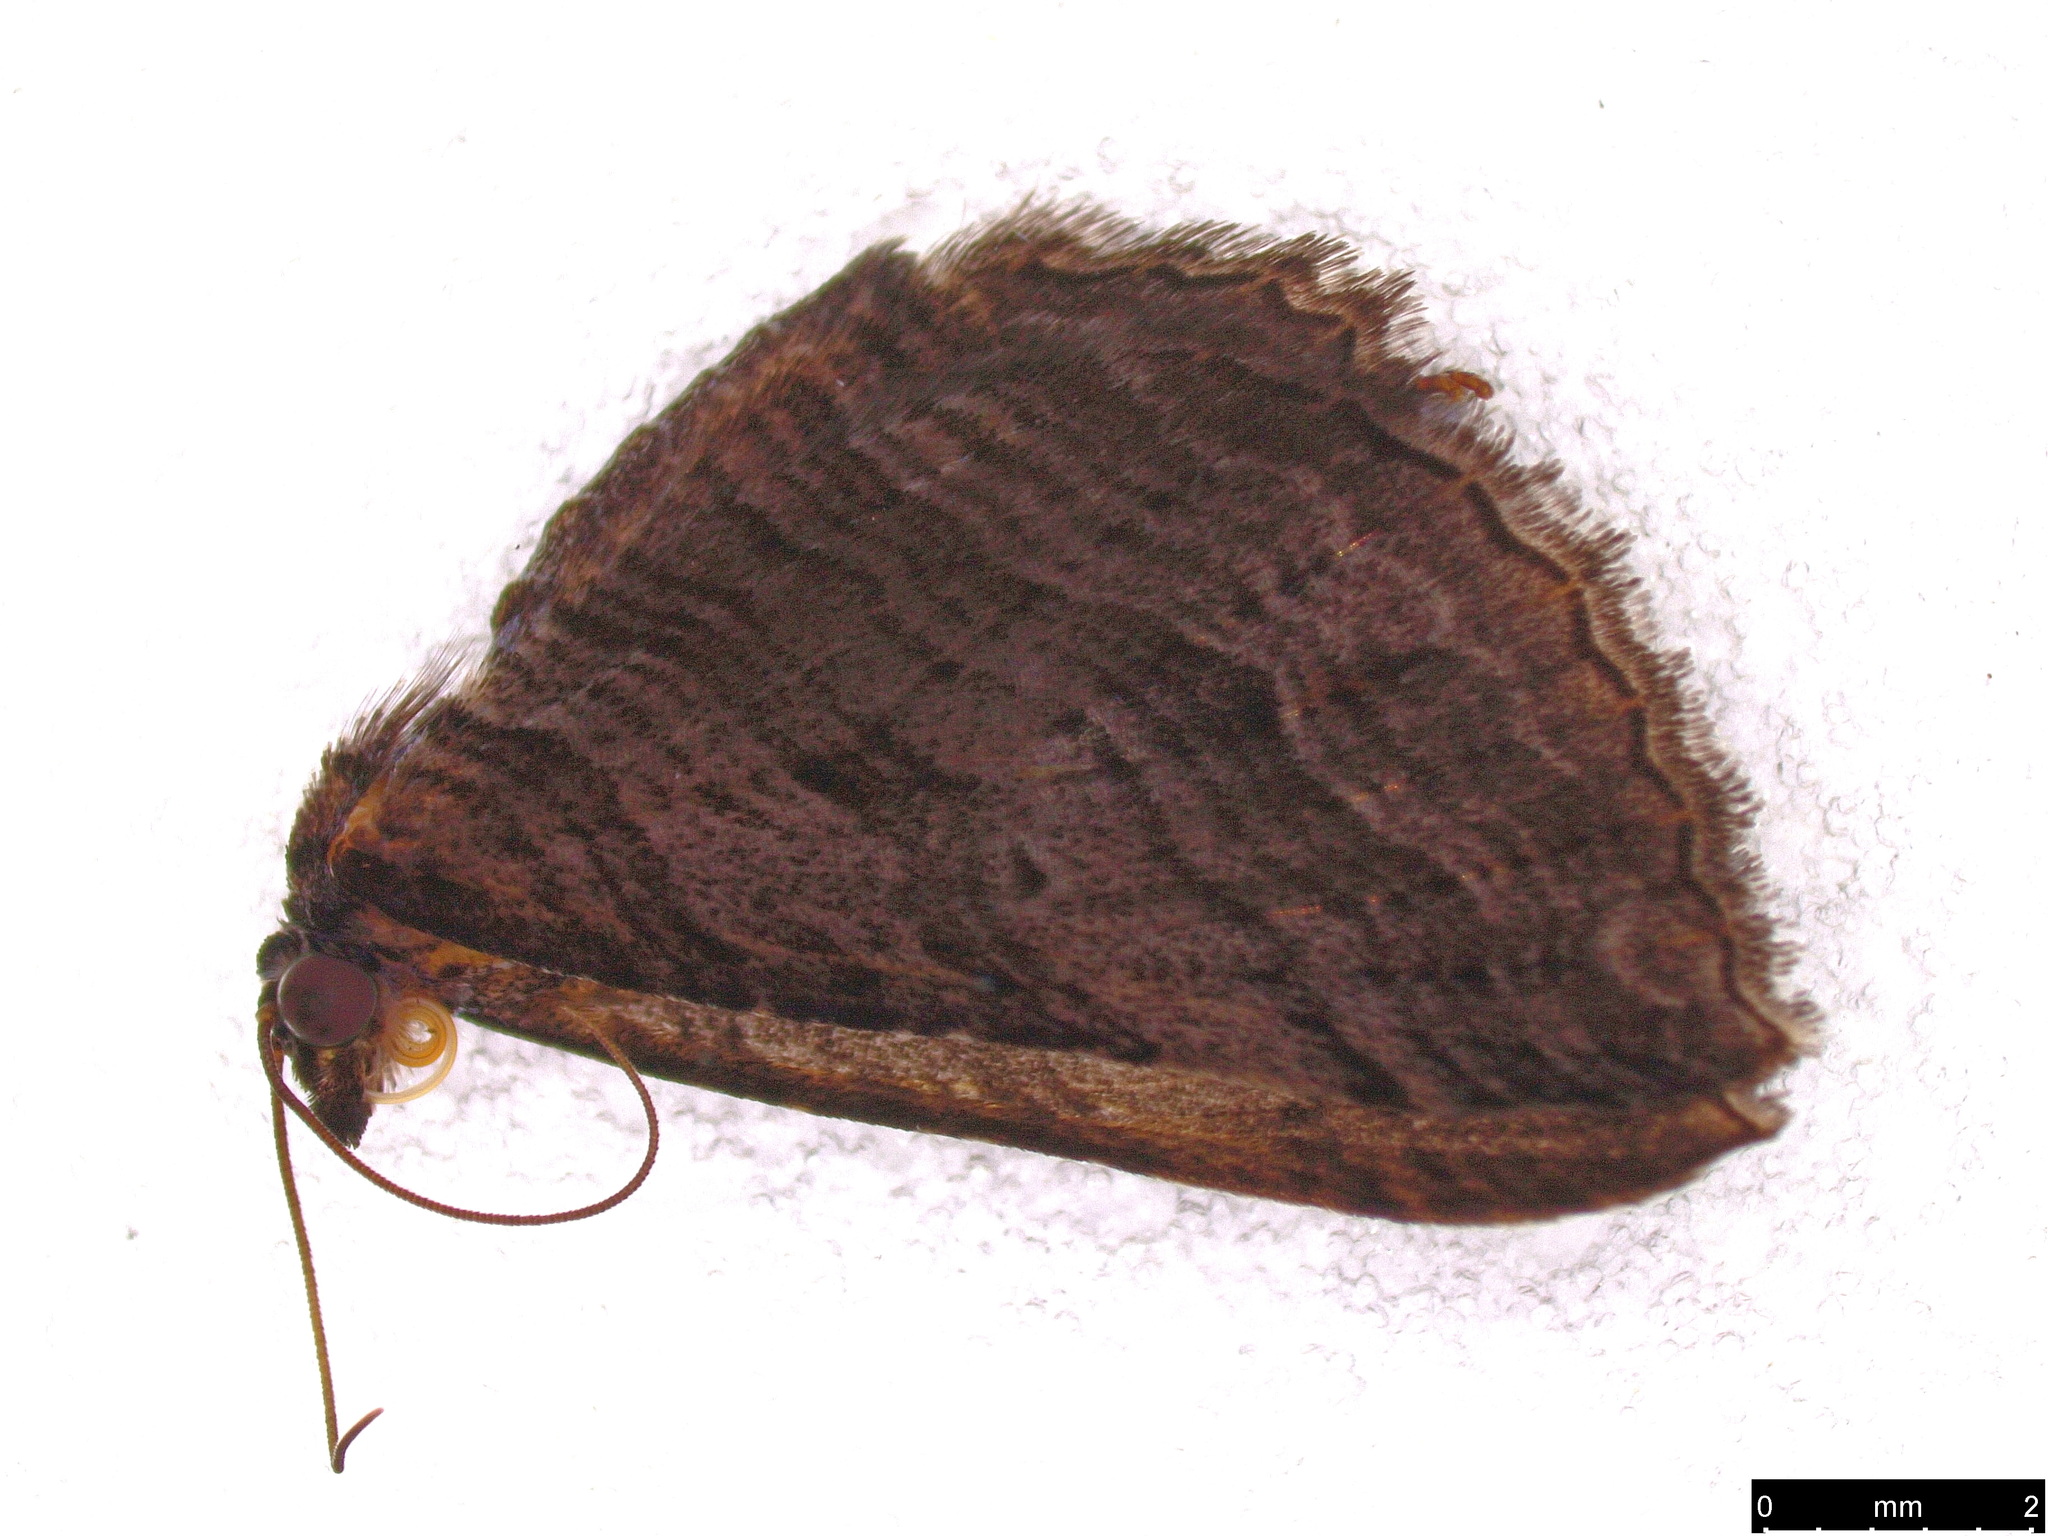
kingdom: Animalia
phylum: Arthropoda
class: Insecta
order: Lepidoptera
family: Geometridae
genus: Chrysolarentia
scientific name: Chrysolarentia severata
